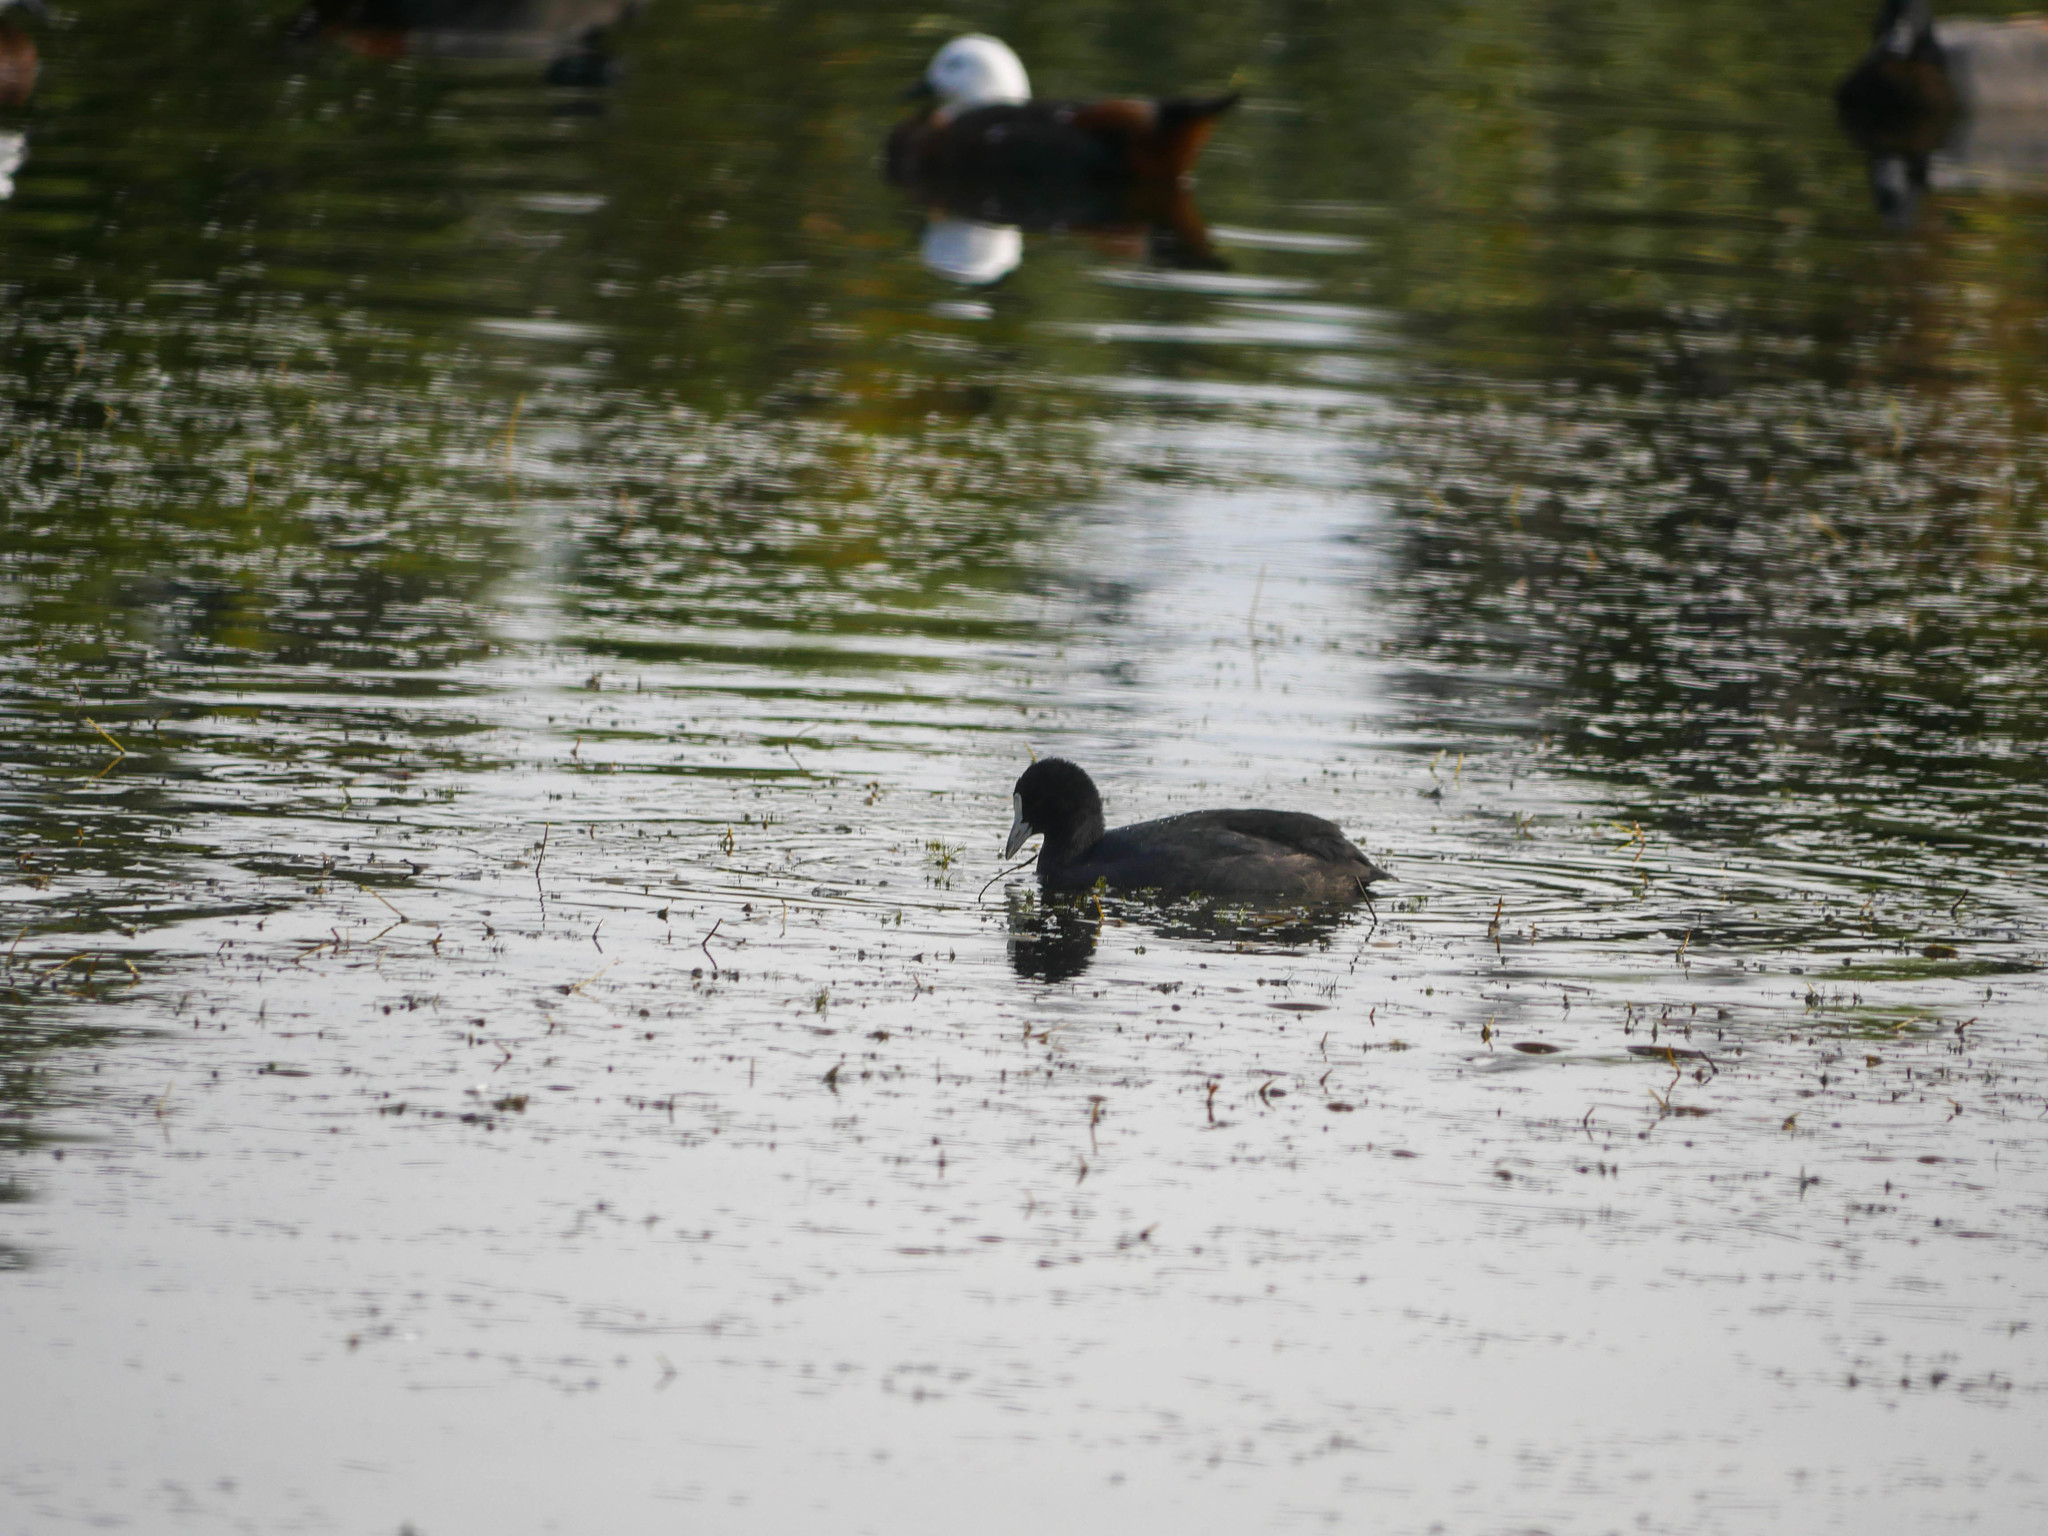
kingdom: Animalia
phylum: Chordata
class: Aves
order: Gruiformes
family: Rallidae
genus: Fulica
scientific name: Fulica atra
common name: Eurasian coot
